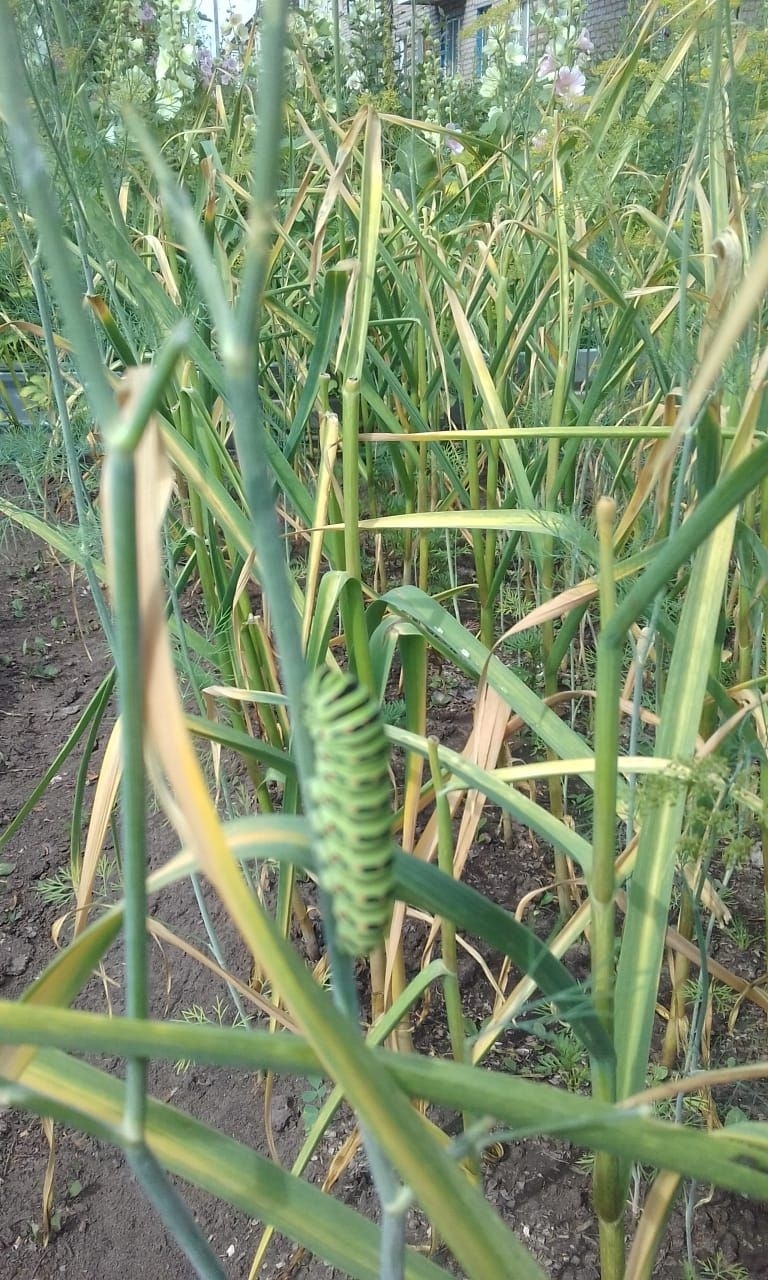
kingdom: Animalia
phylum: Arthropoda
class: Insecta
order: Lepidoptera
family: Papilionidae
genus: Papilio
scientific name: Papilio machaon
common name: Swallowtail
